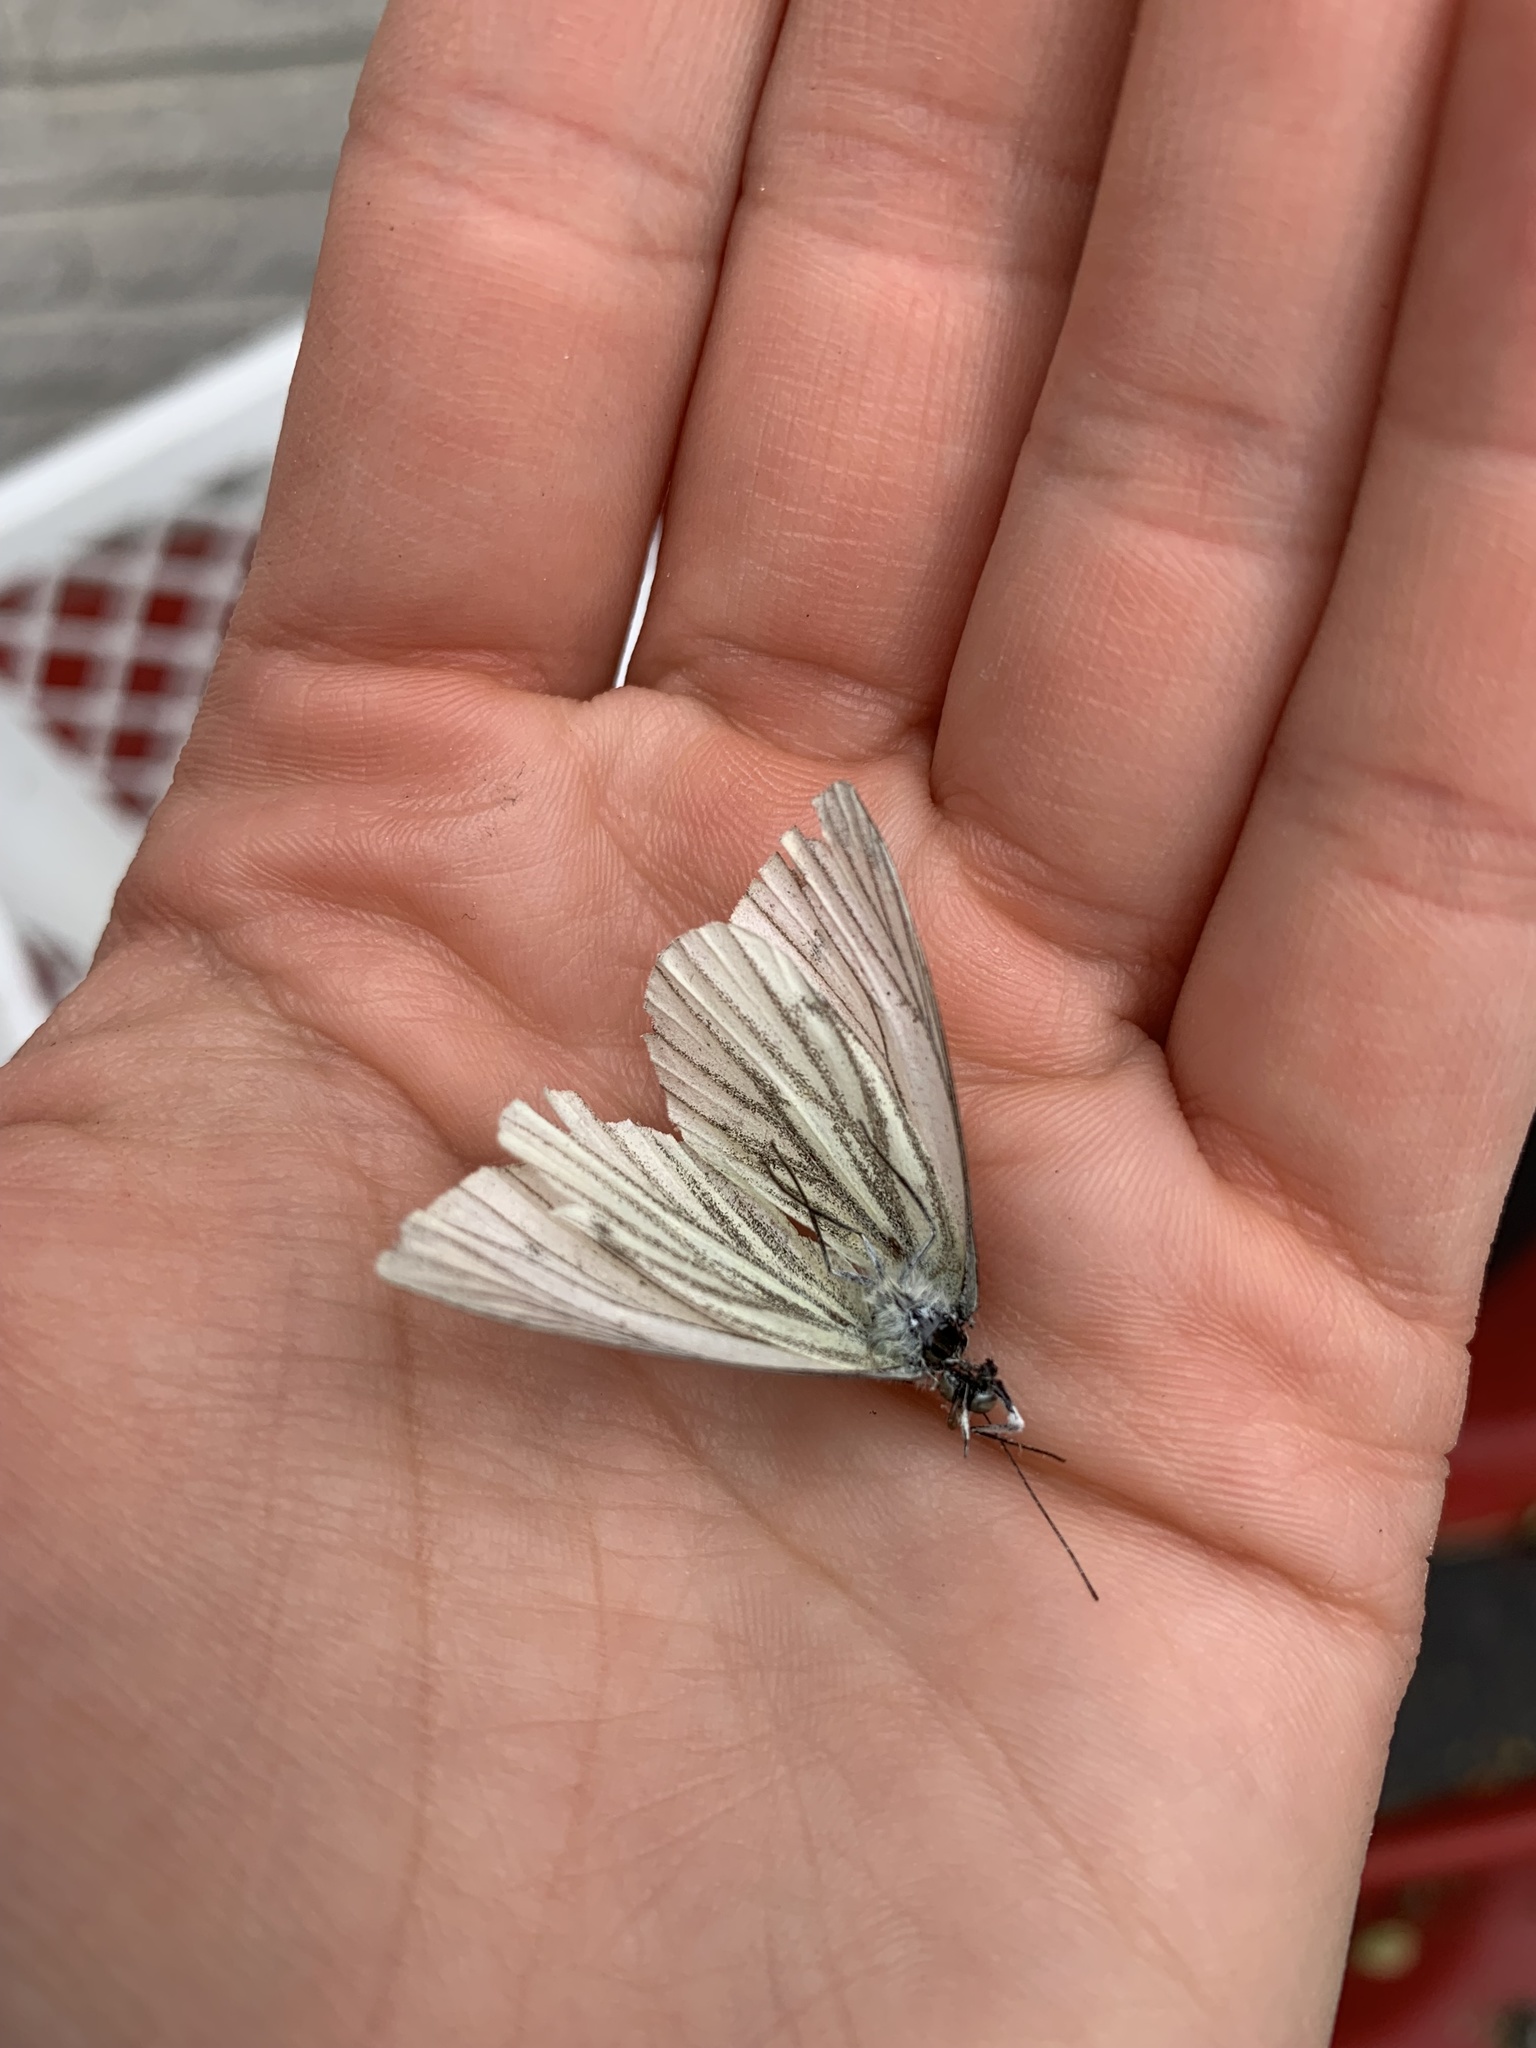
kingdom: Animalia
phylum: Arthropoda
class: Insecta
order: Lepidoptera
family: Pieridae
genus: Pieris
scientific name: Pieris napi
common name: Green-veined white
